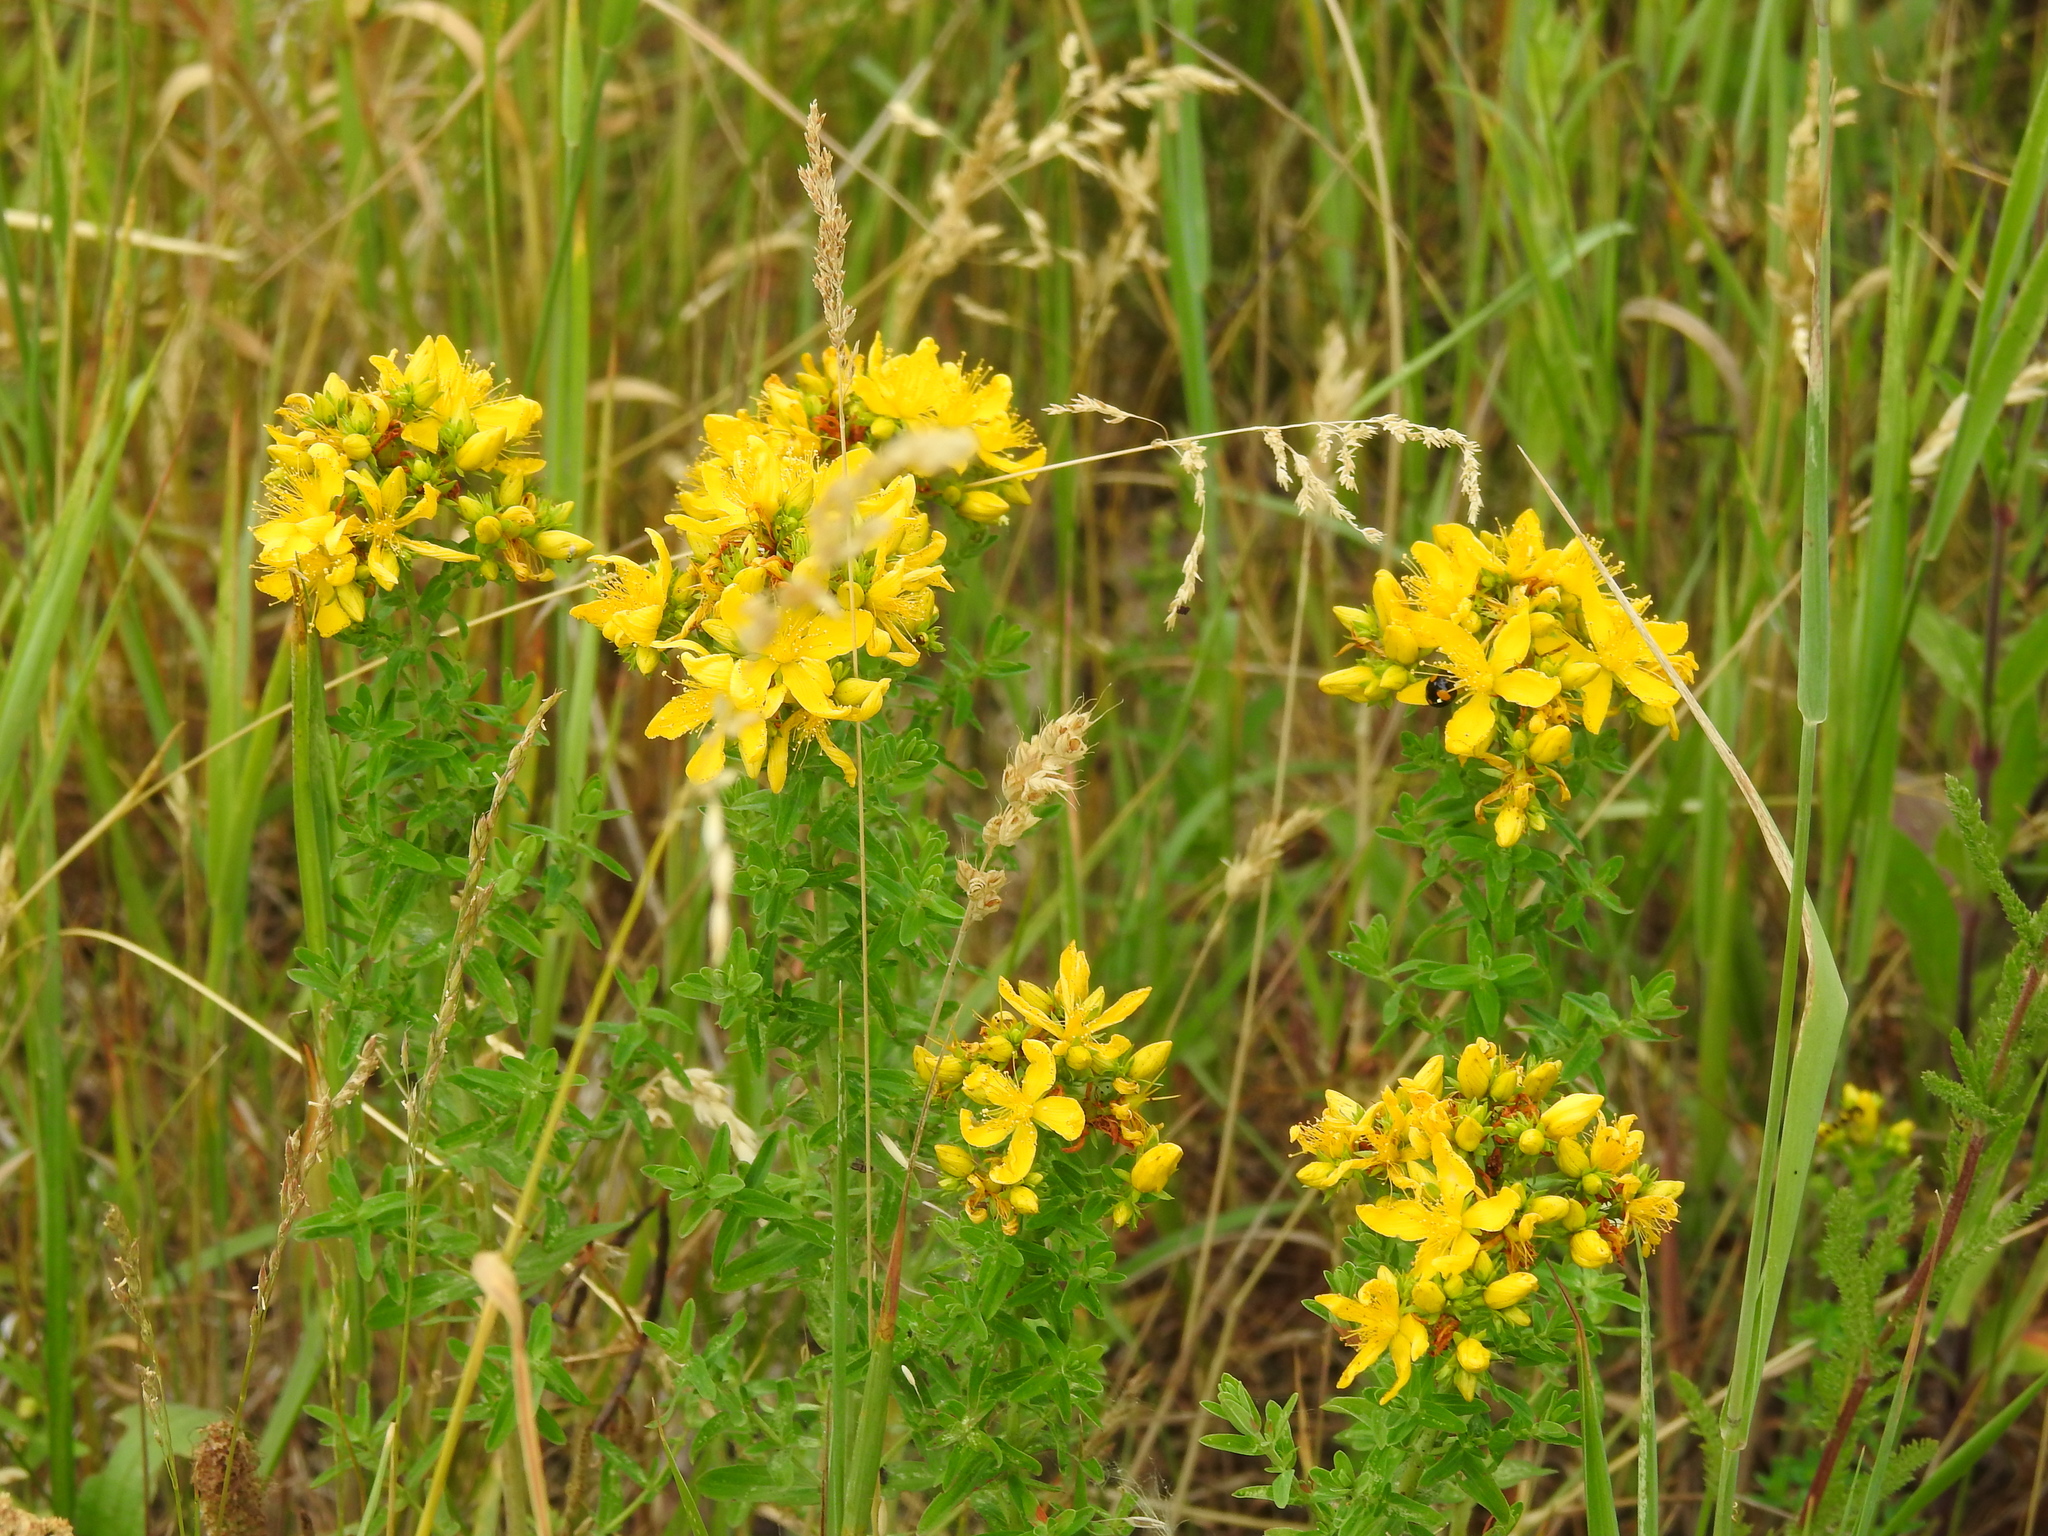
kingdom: Plantae
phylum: Tracheophyta
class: Magnoliopsida
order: Malpighiales
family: Hypericaceae
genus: Hypericum
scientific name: Hypericum perforatum
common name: Common st. johnswort
